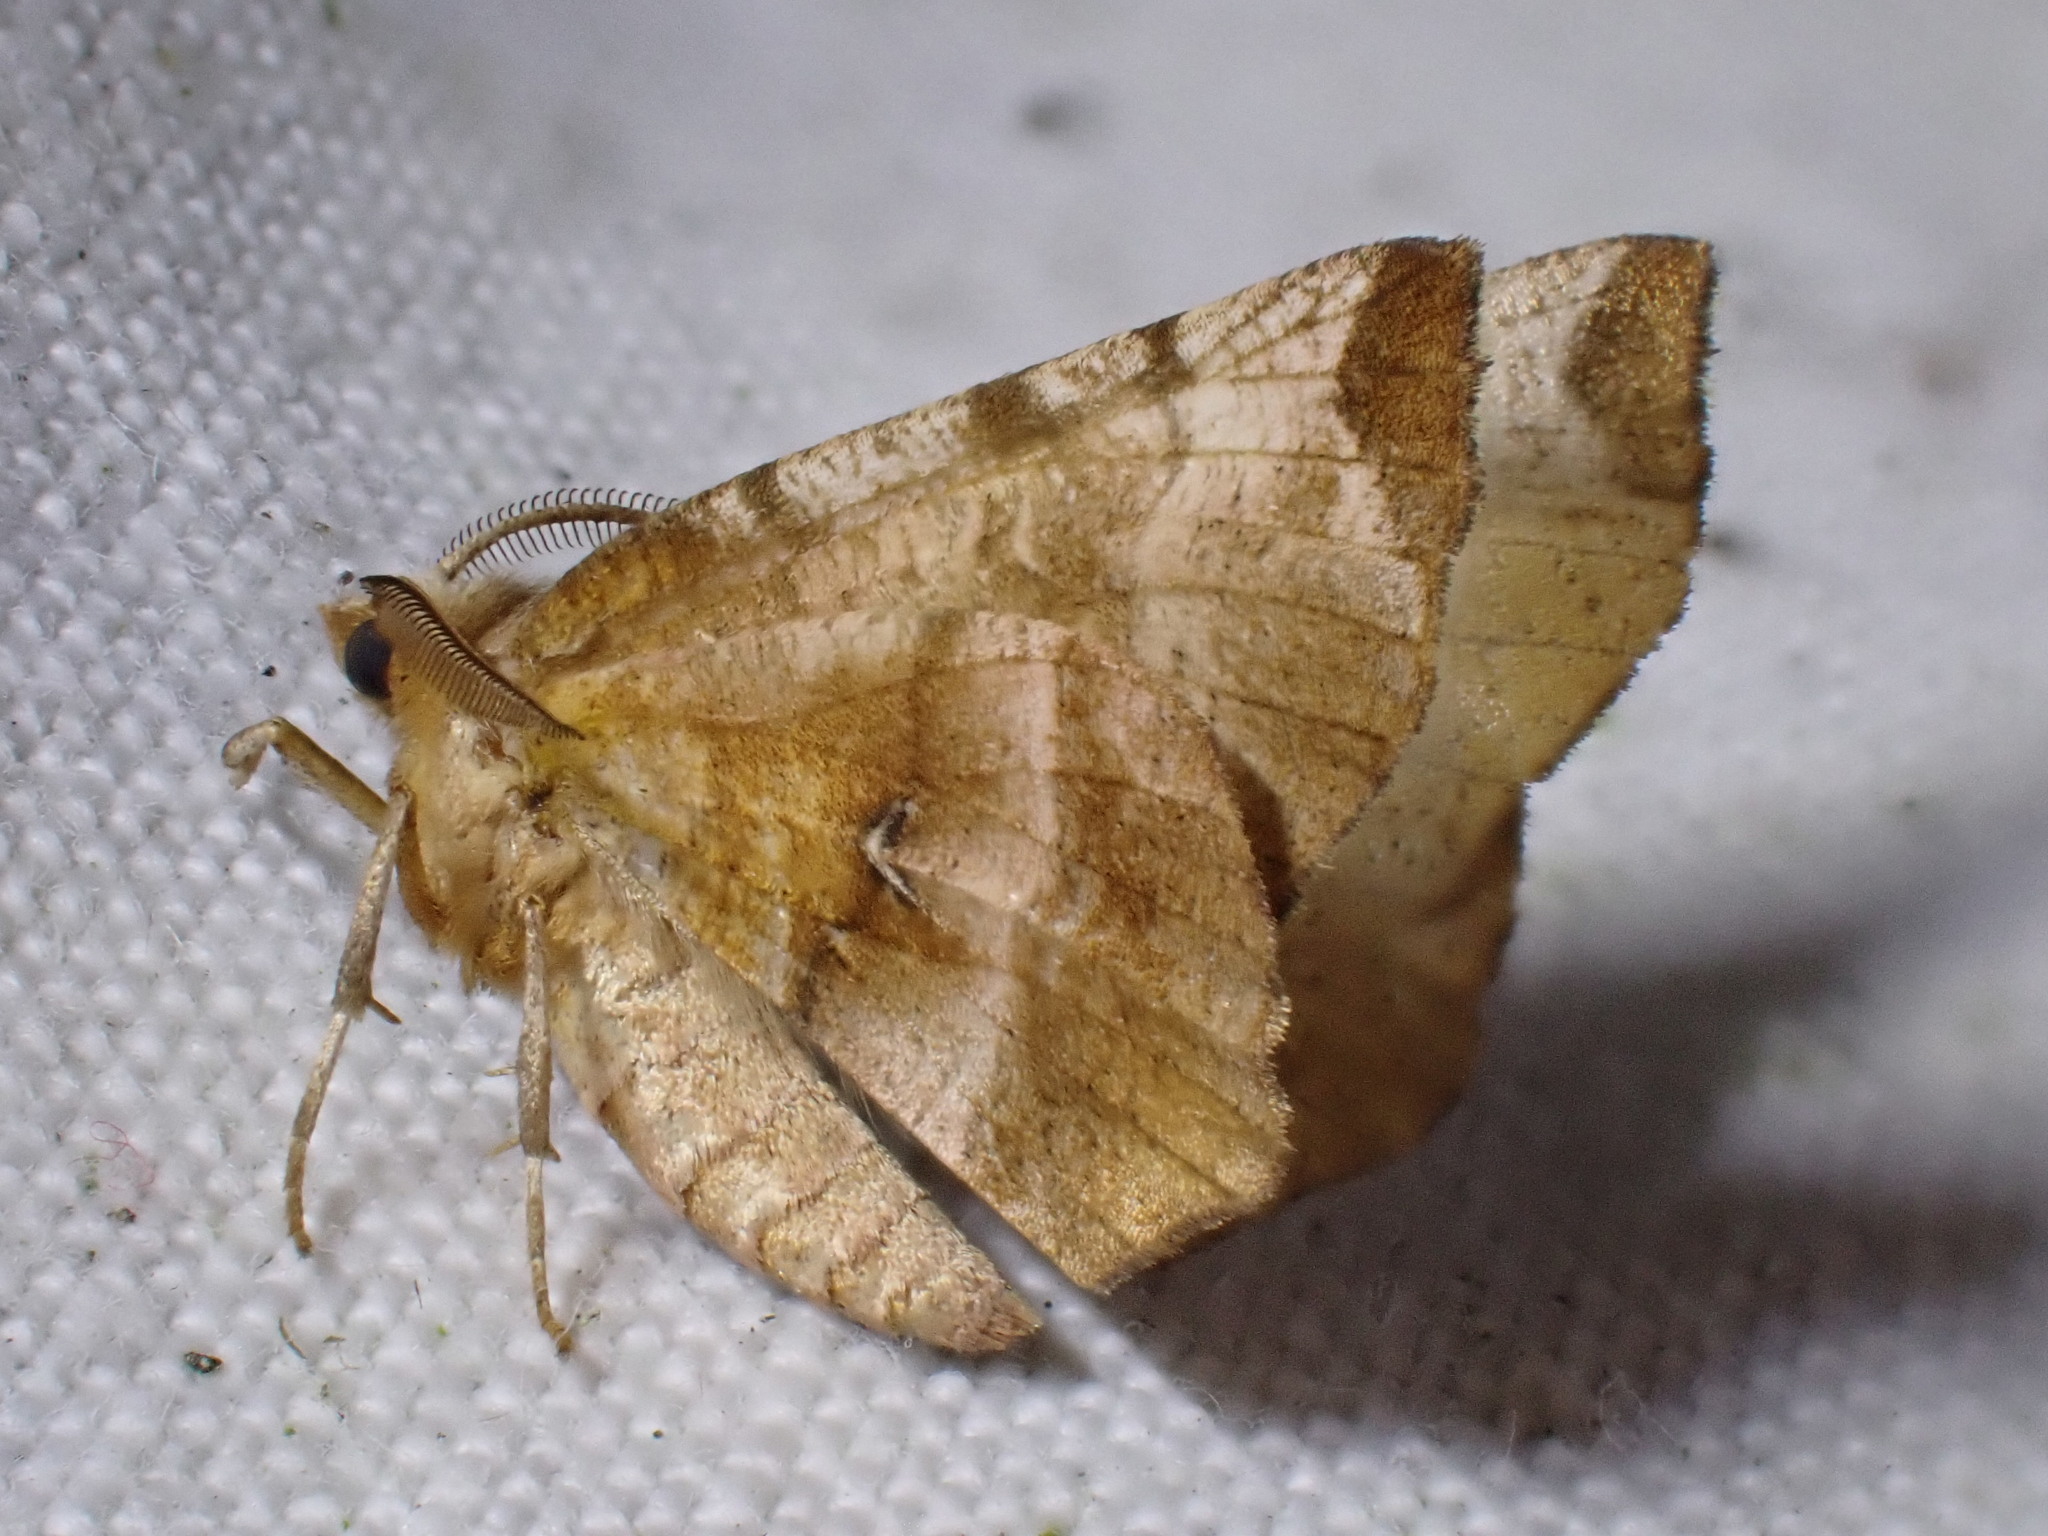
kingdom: Animalia
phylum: Arthropoda
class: Insecta
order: Lepidoptera
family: Geometridae
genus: Selenia
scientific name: Selenia dentaria
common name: Early thorn
